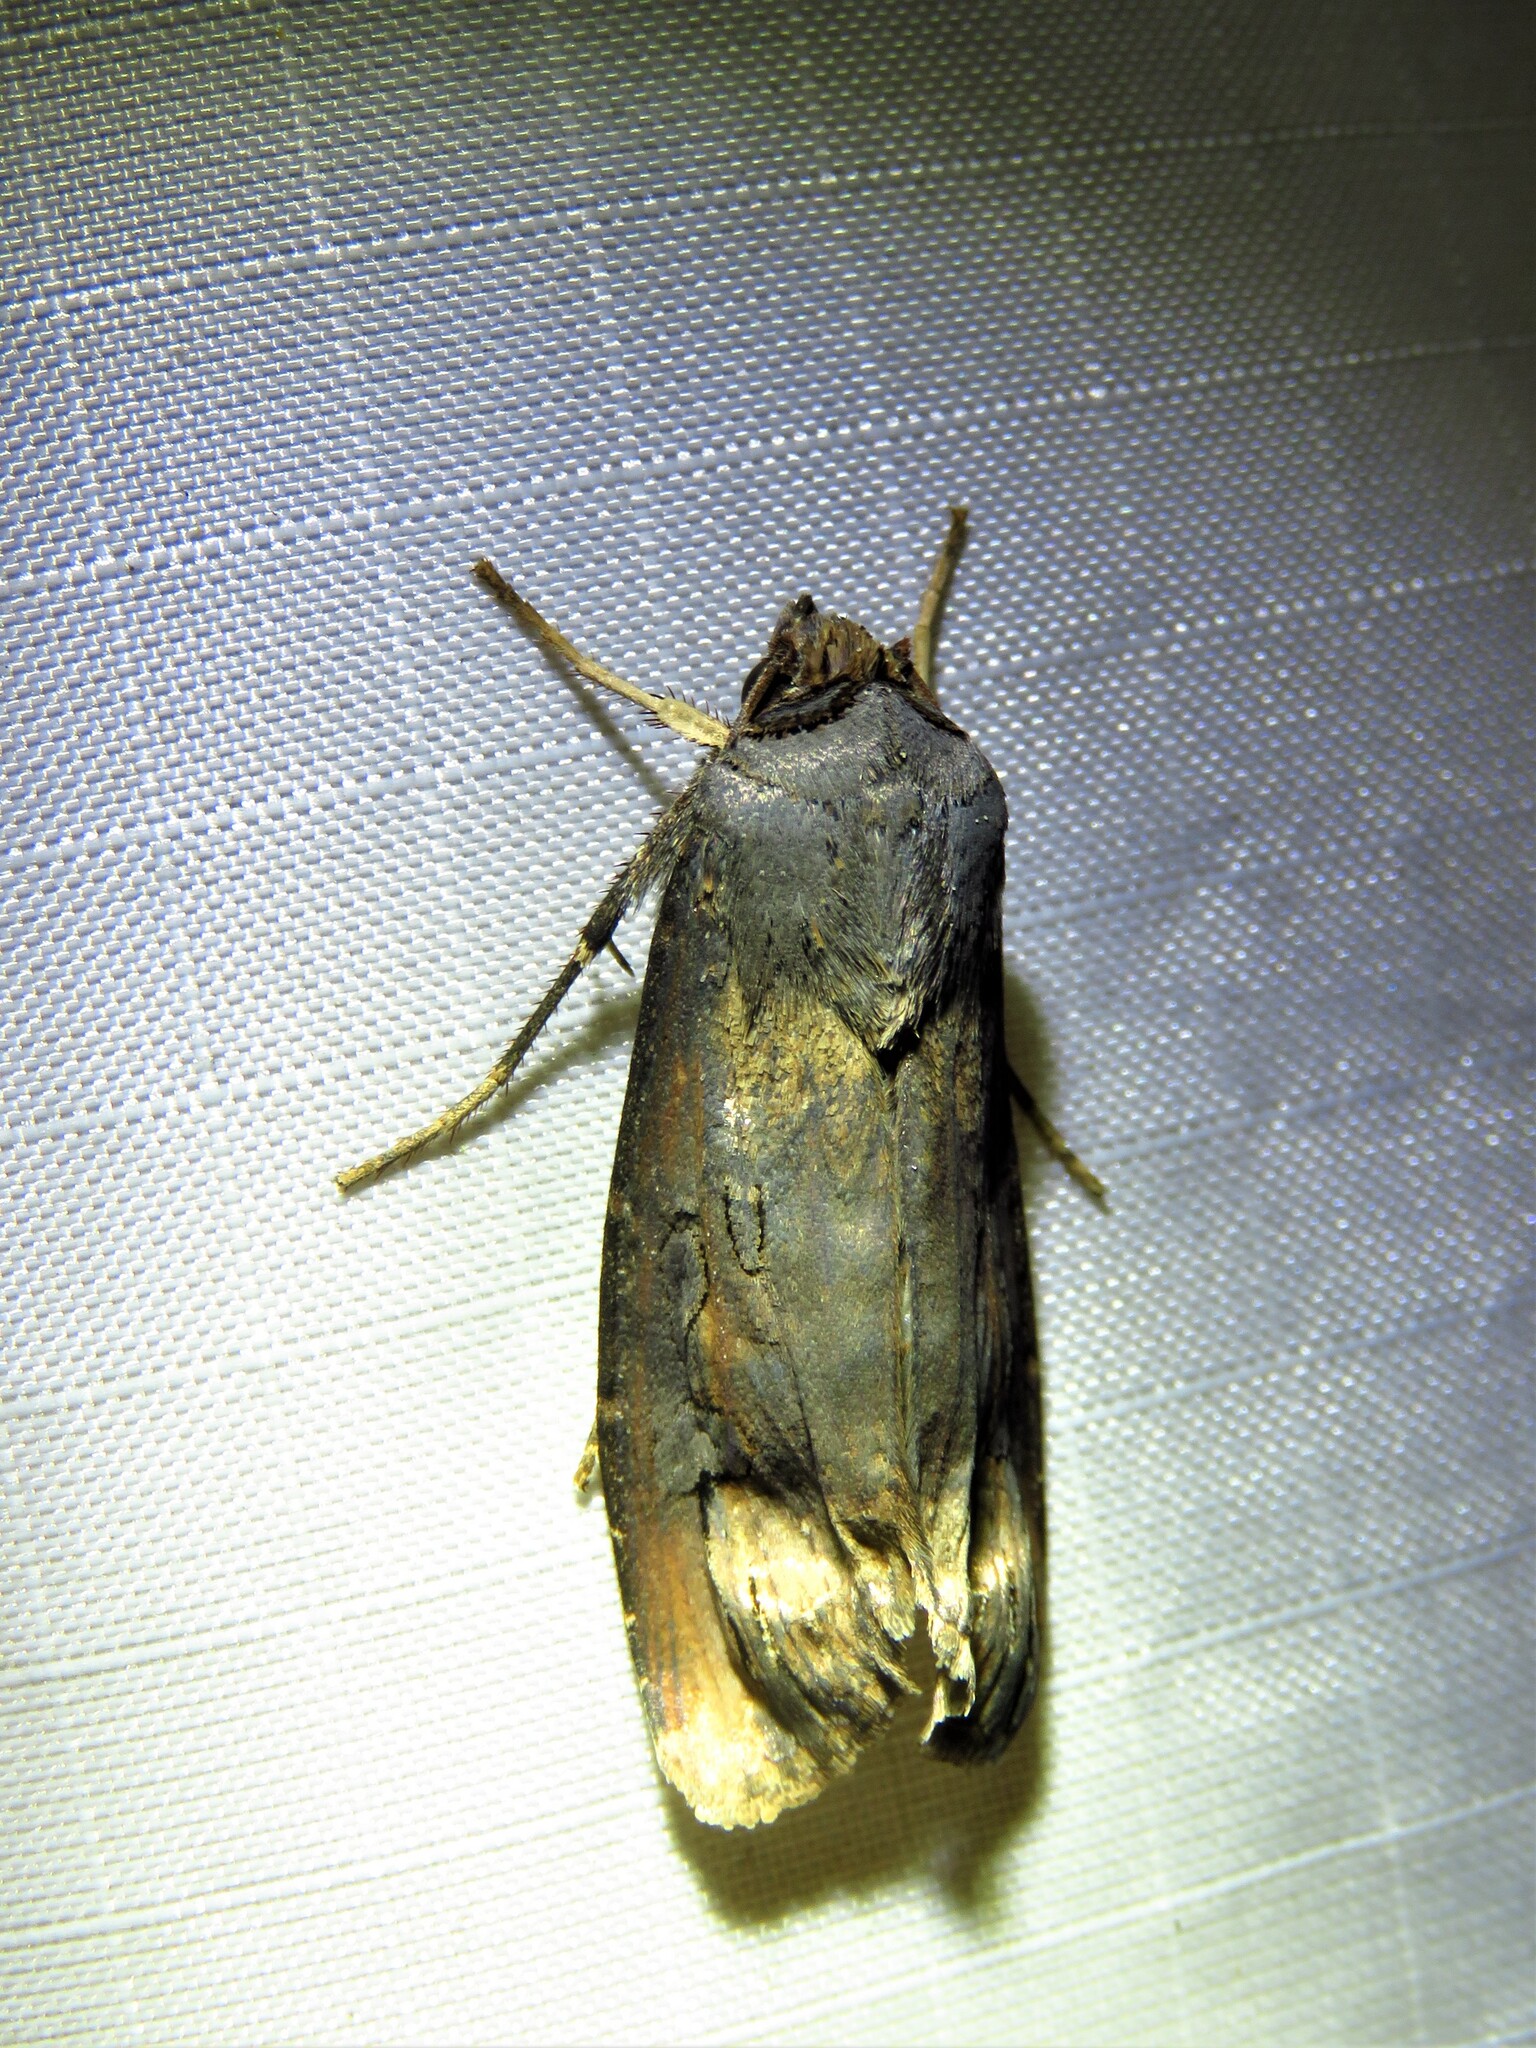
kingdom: Animalia
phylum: Arthropoda
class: Insecta
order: Lepidoptera
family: Noctuidae
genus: Agrotis
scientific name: Agrotis ipsilon
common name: Dark sword-grass
